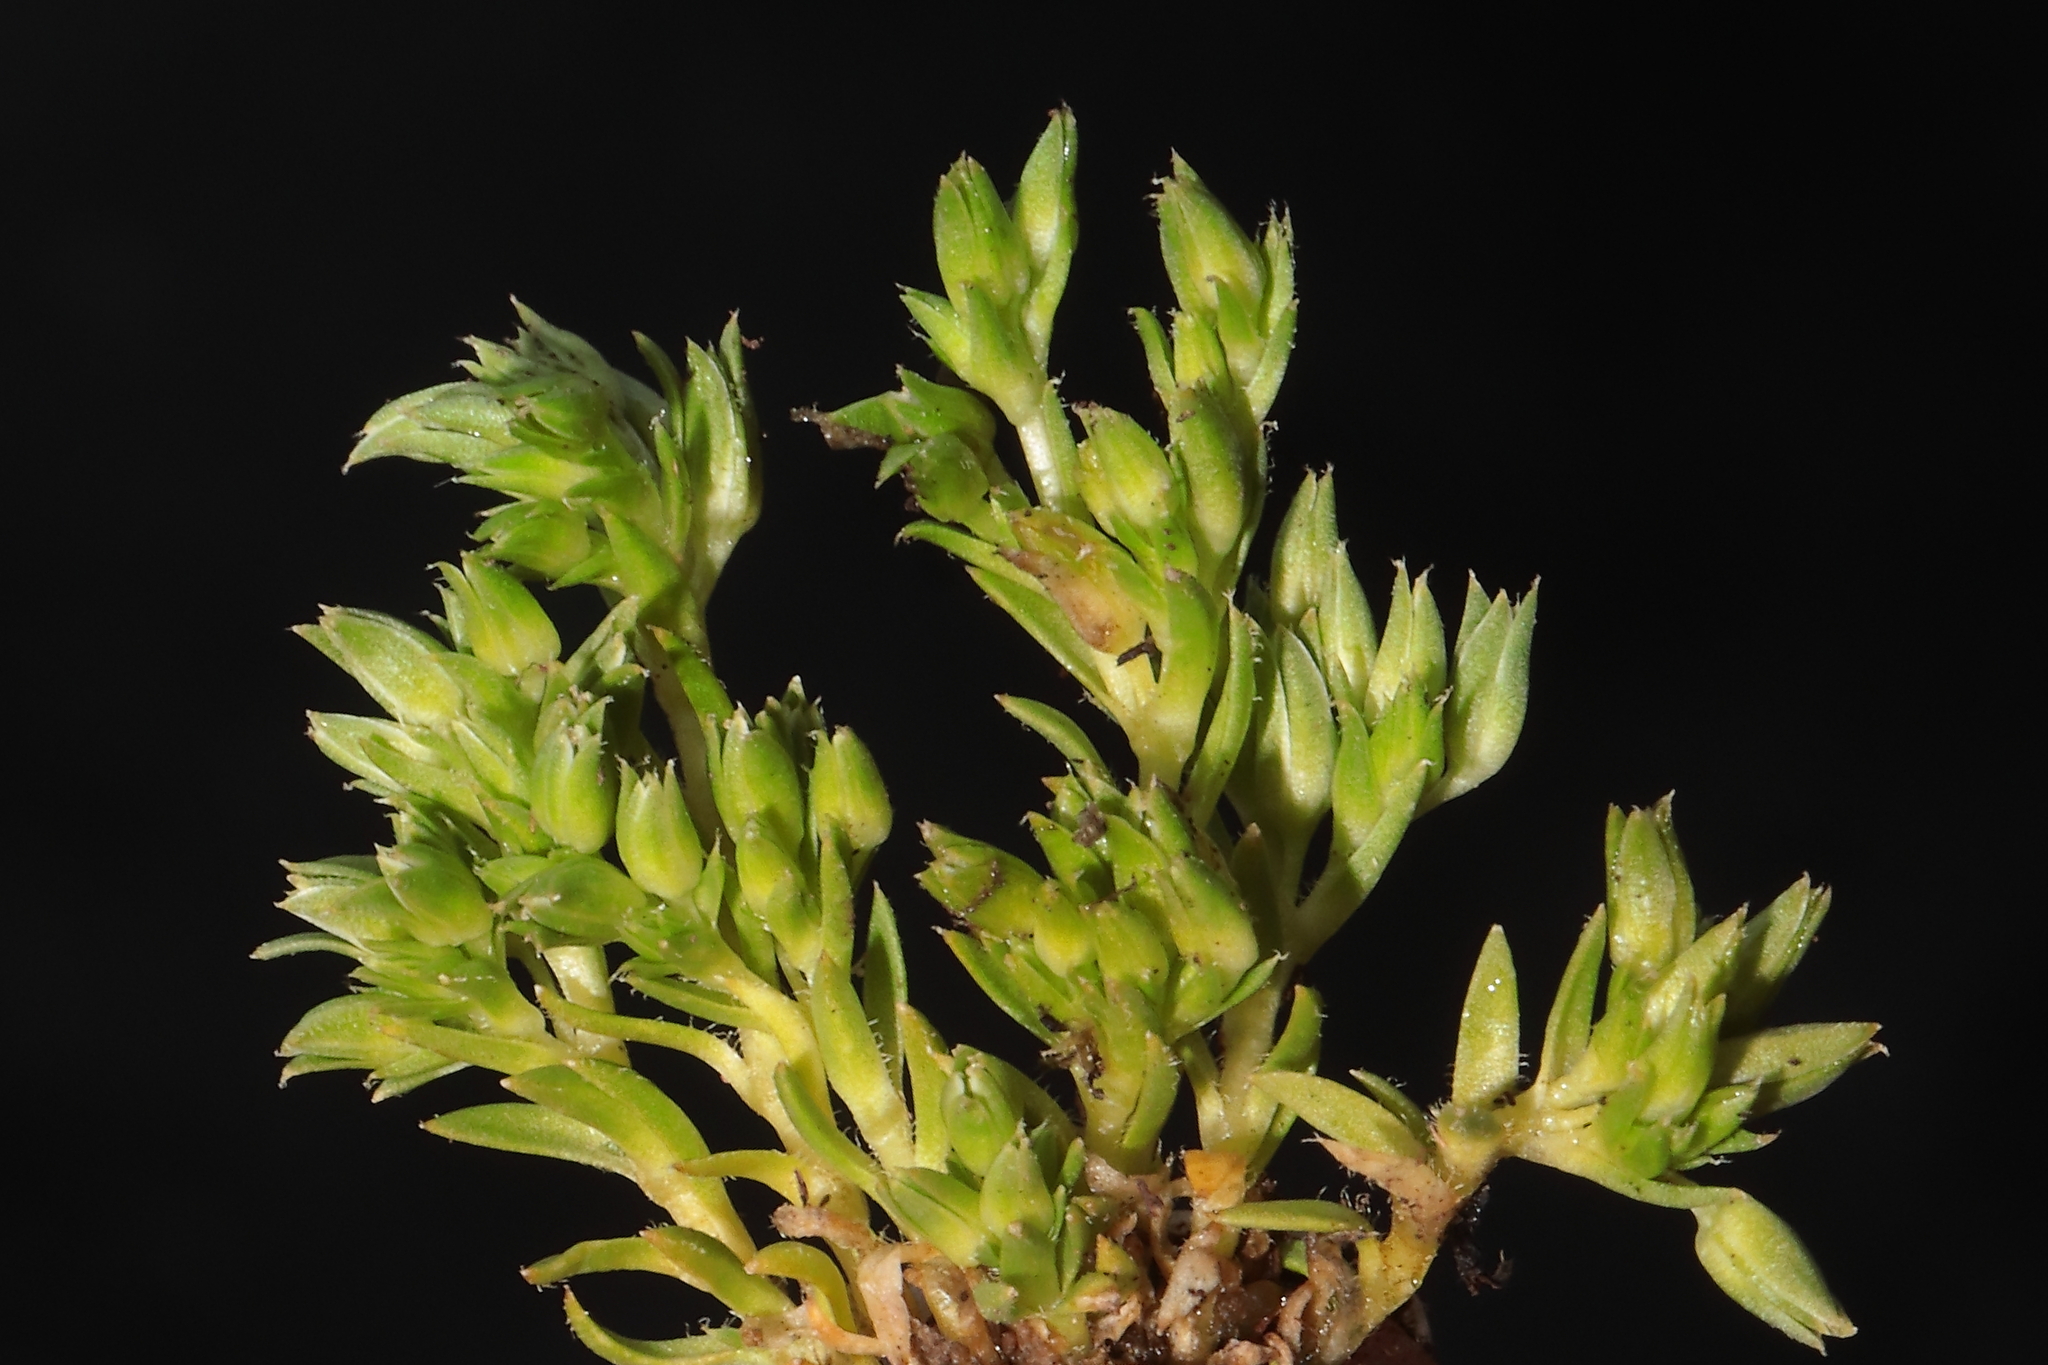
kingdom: Plantae
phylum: Tracheophyta
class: Magnoliopsida
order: Caryophyllales
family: Caryophyllaceae
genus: Arenaria
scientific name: Arenaria crassipes
